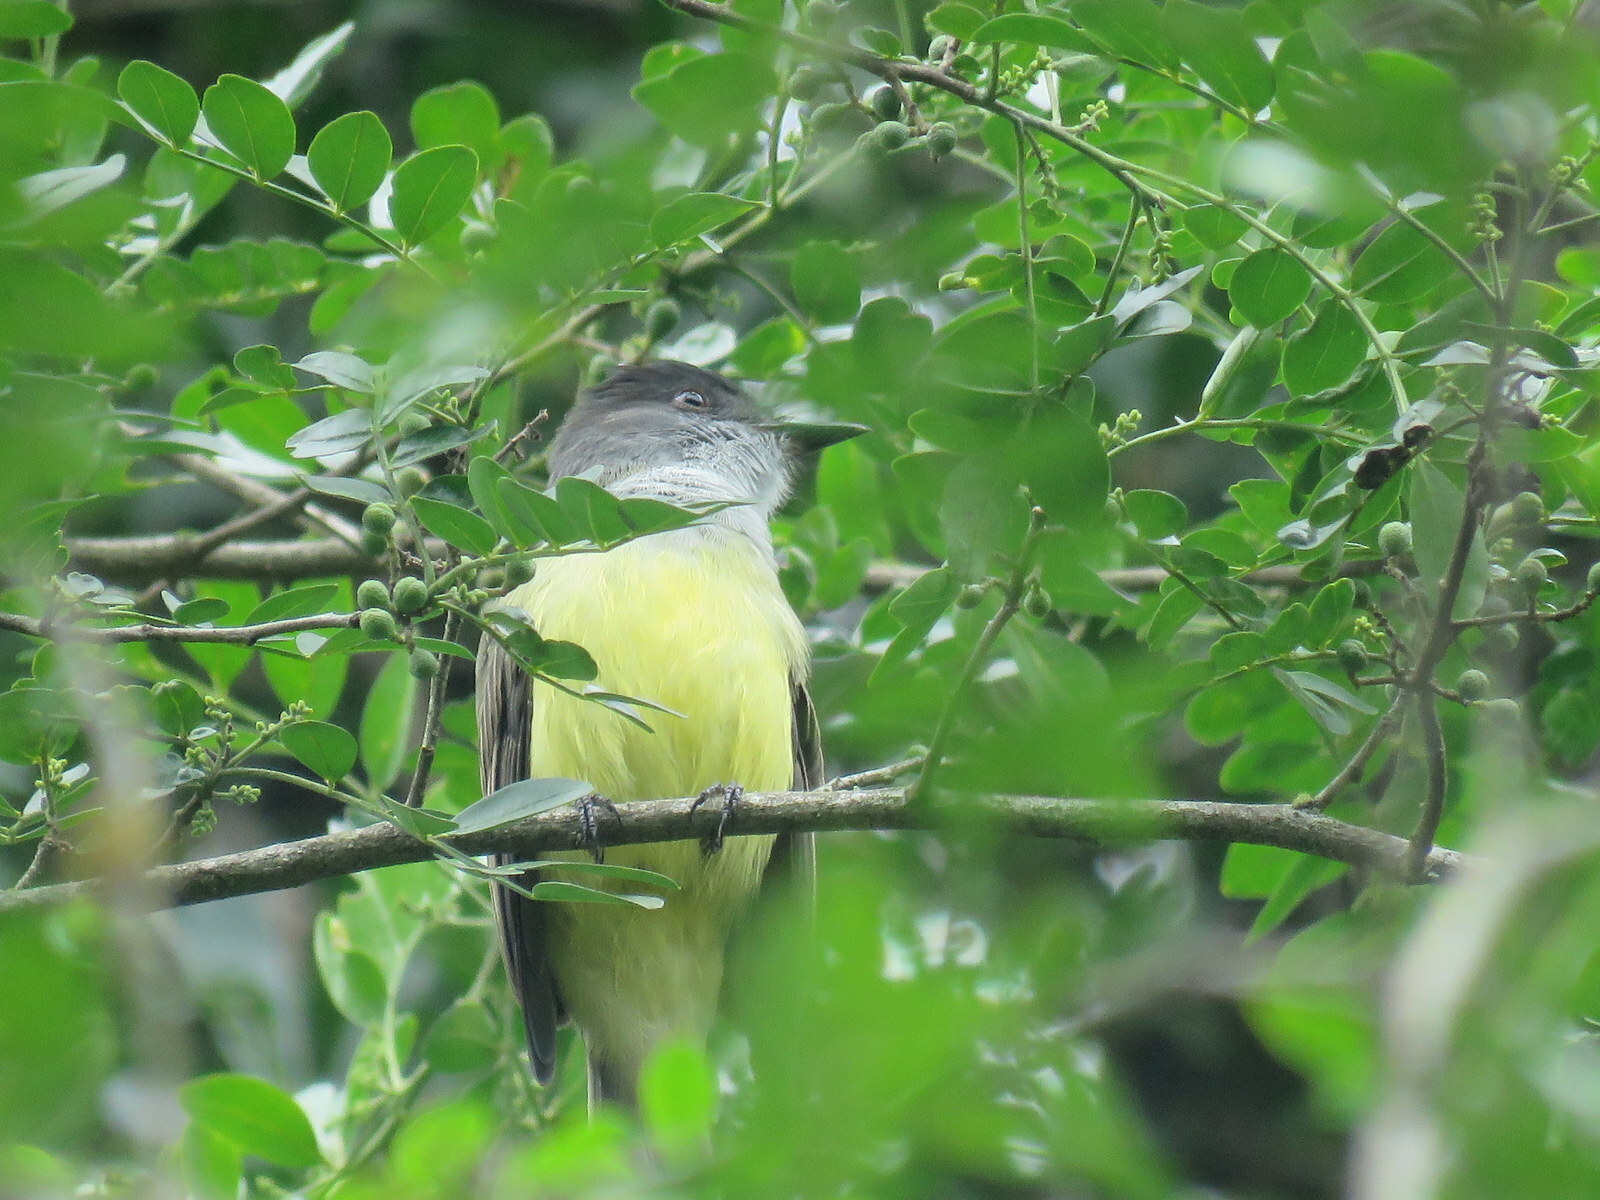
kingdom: Animalia
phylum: Chordata
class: Aves
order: Passeriformes
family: Tyrannidae
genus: Myiarchus
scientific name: Myiarchus tuberculifer
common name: Dusky-capped flycatcher
